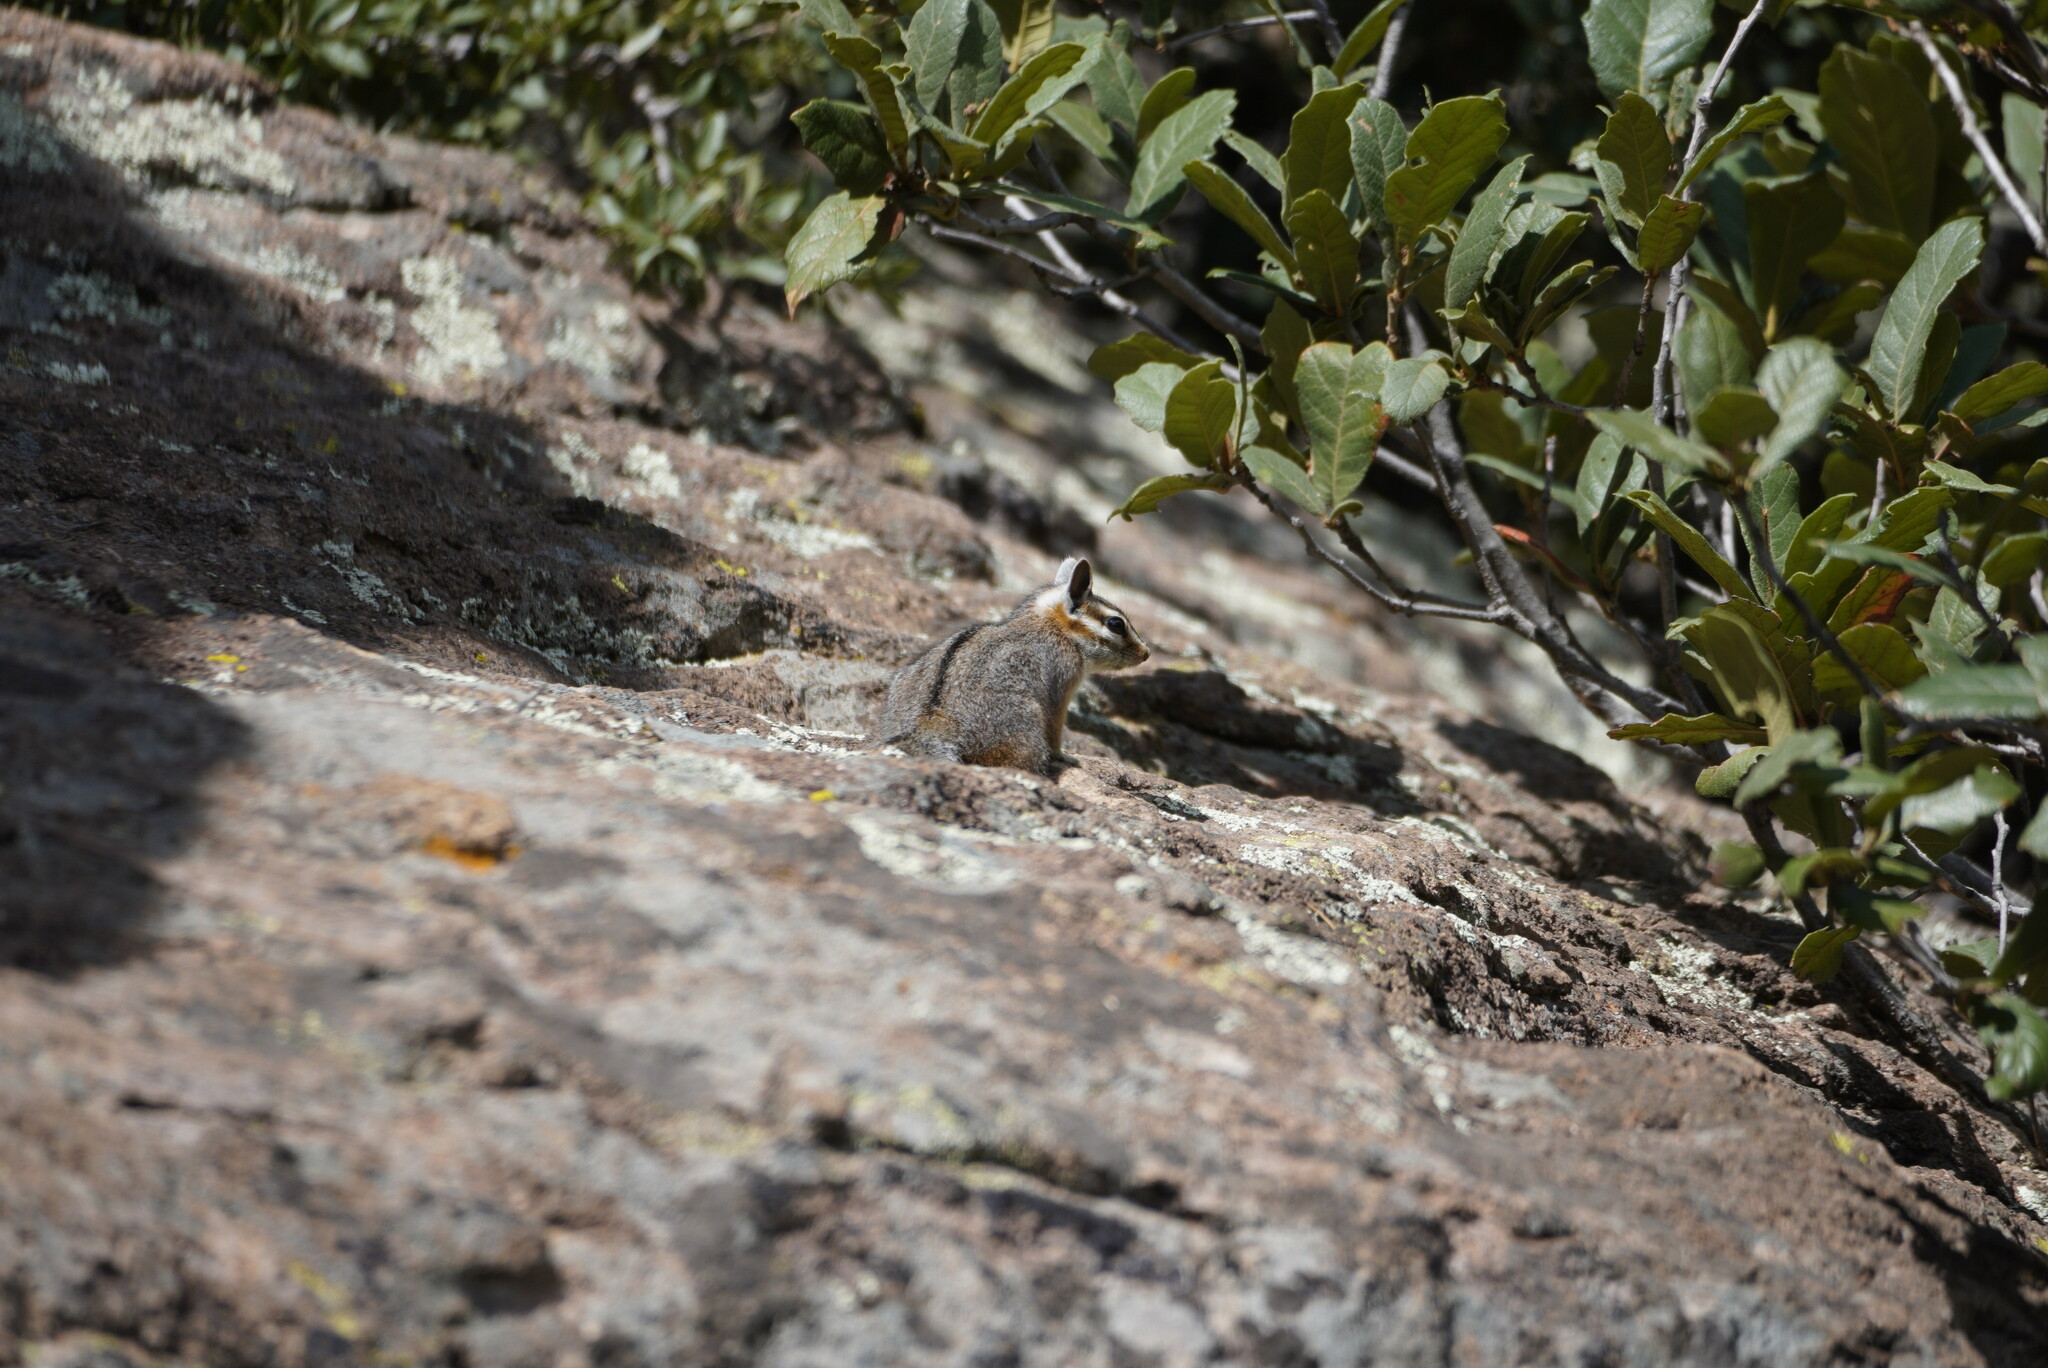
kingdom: Animalia
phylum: Chordata
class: Mammalia
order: Rodentia
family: Sciuridae
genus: Tamias
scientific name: Tamias dorsalis
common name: Cliff chipmunk
